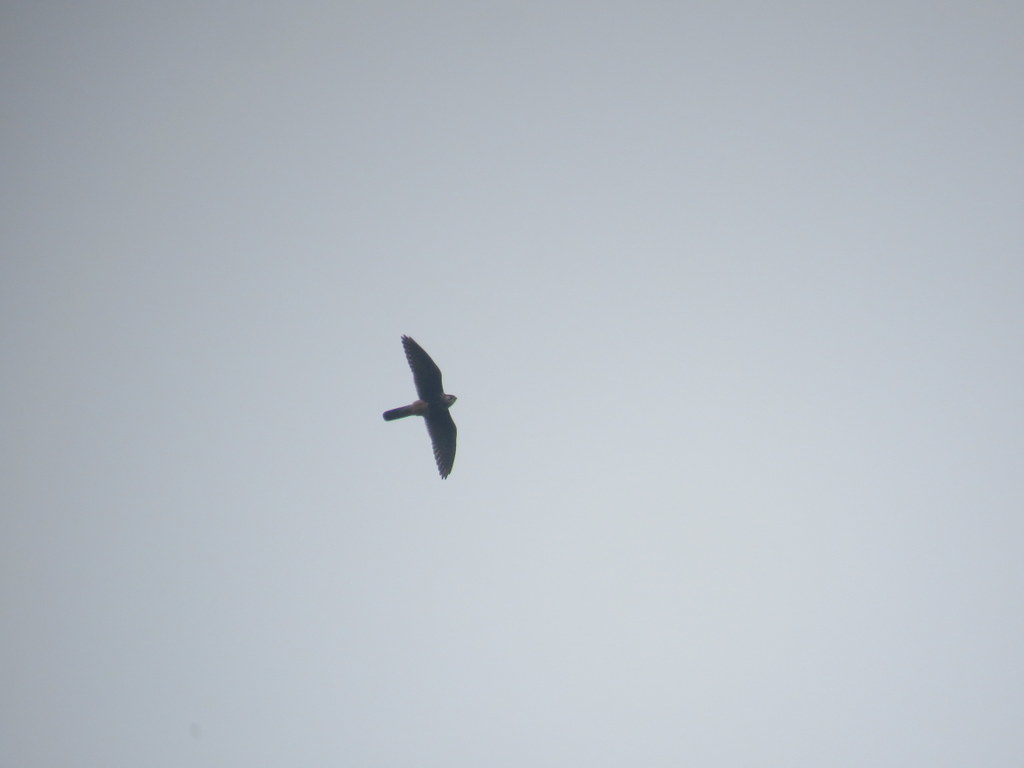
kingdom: Animalia
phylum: Chordata
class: Aves
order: Falconiformes
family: Falconidae
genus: Falco
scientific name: Falco femoralis
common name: Aplomado falcon
